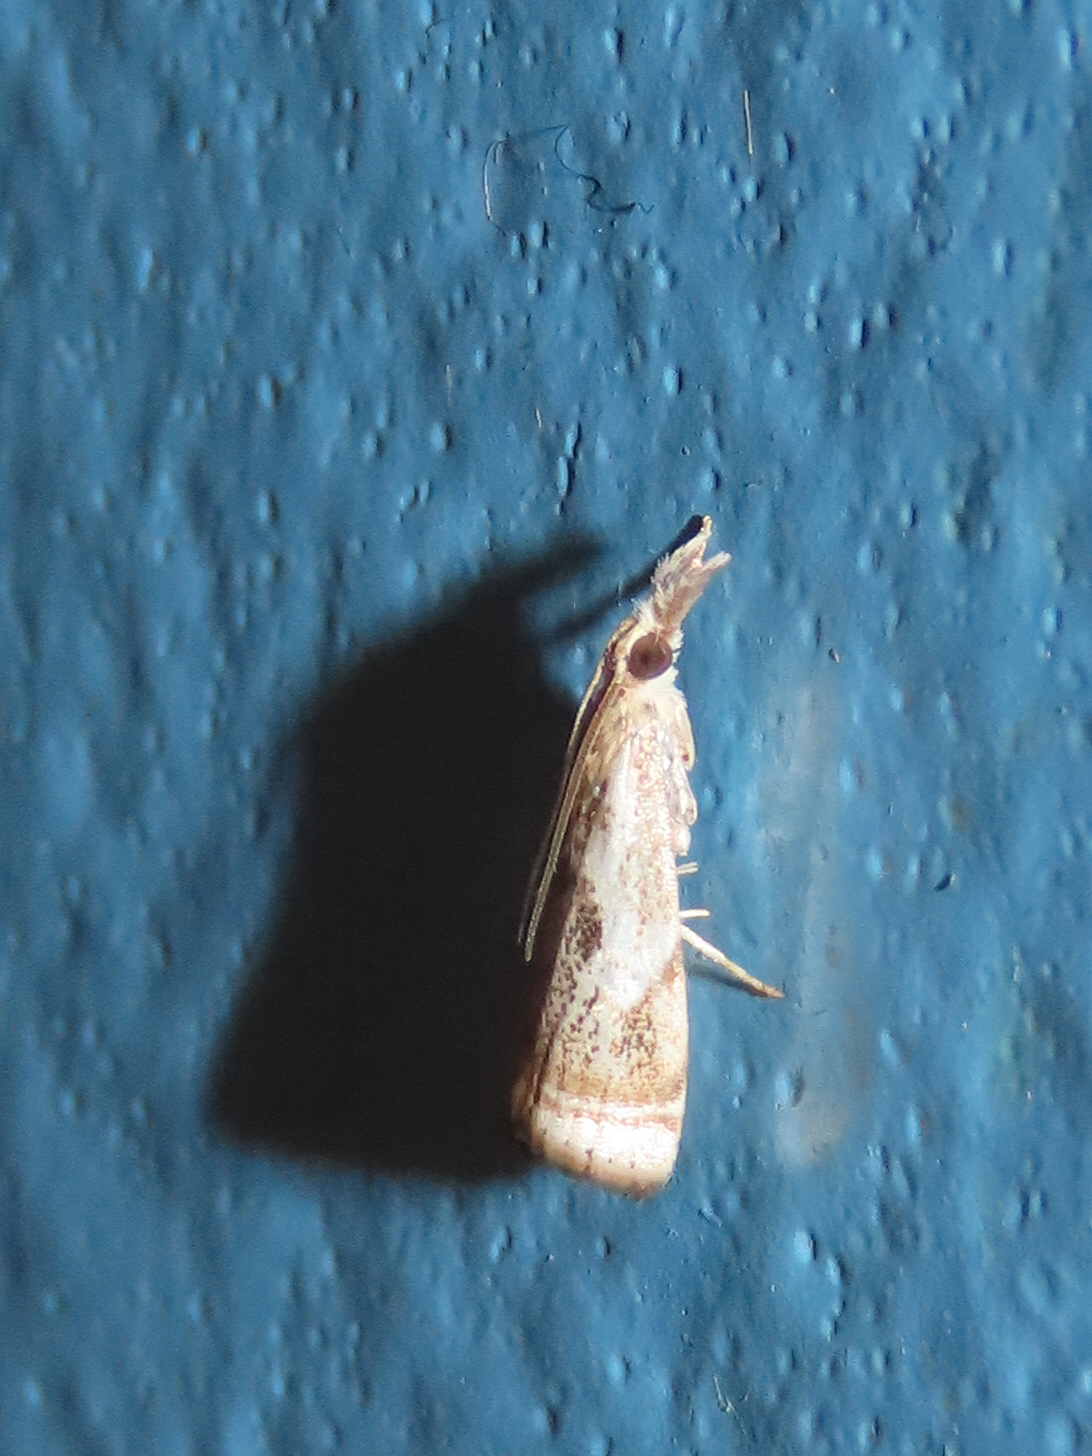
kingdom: Animalia
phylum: Arthropoda
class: Insecta
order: Lepidoptera
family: Crambidae
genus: Microcrambus
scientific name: Microcrambus elegans
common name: Elegant grass-veneer
